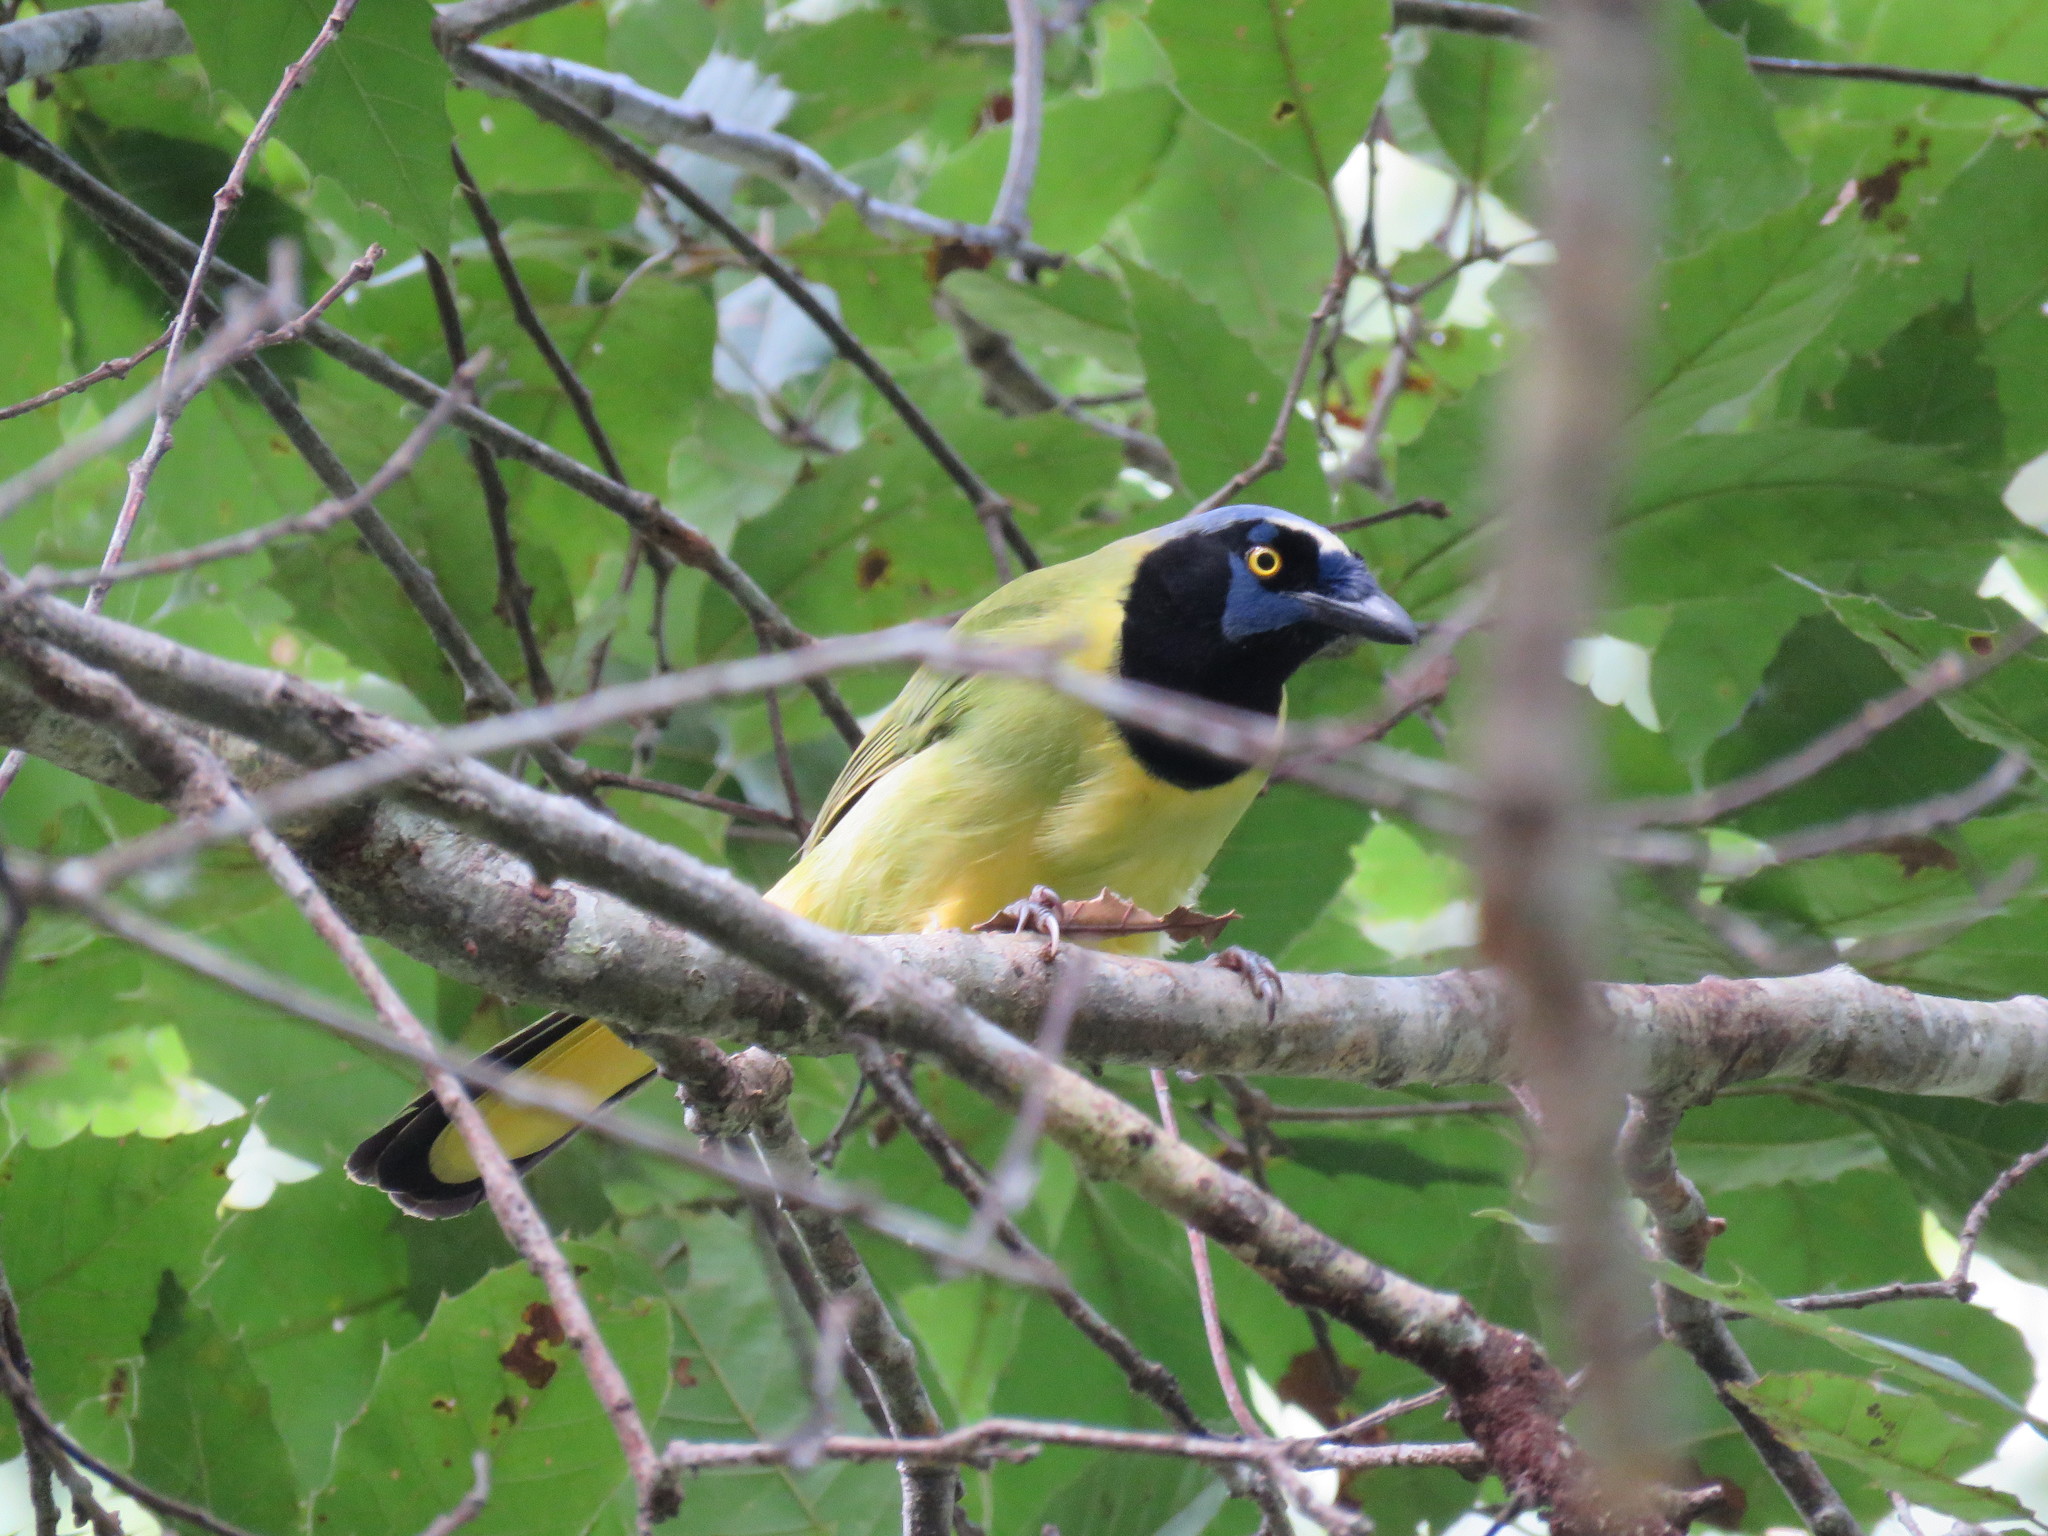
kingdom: Animalia
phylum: Chordata
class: Aves
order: Passeriformes
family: Corvidae
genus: Cyanocorax
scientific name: Cyanocorax yncas
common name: Green jay
